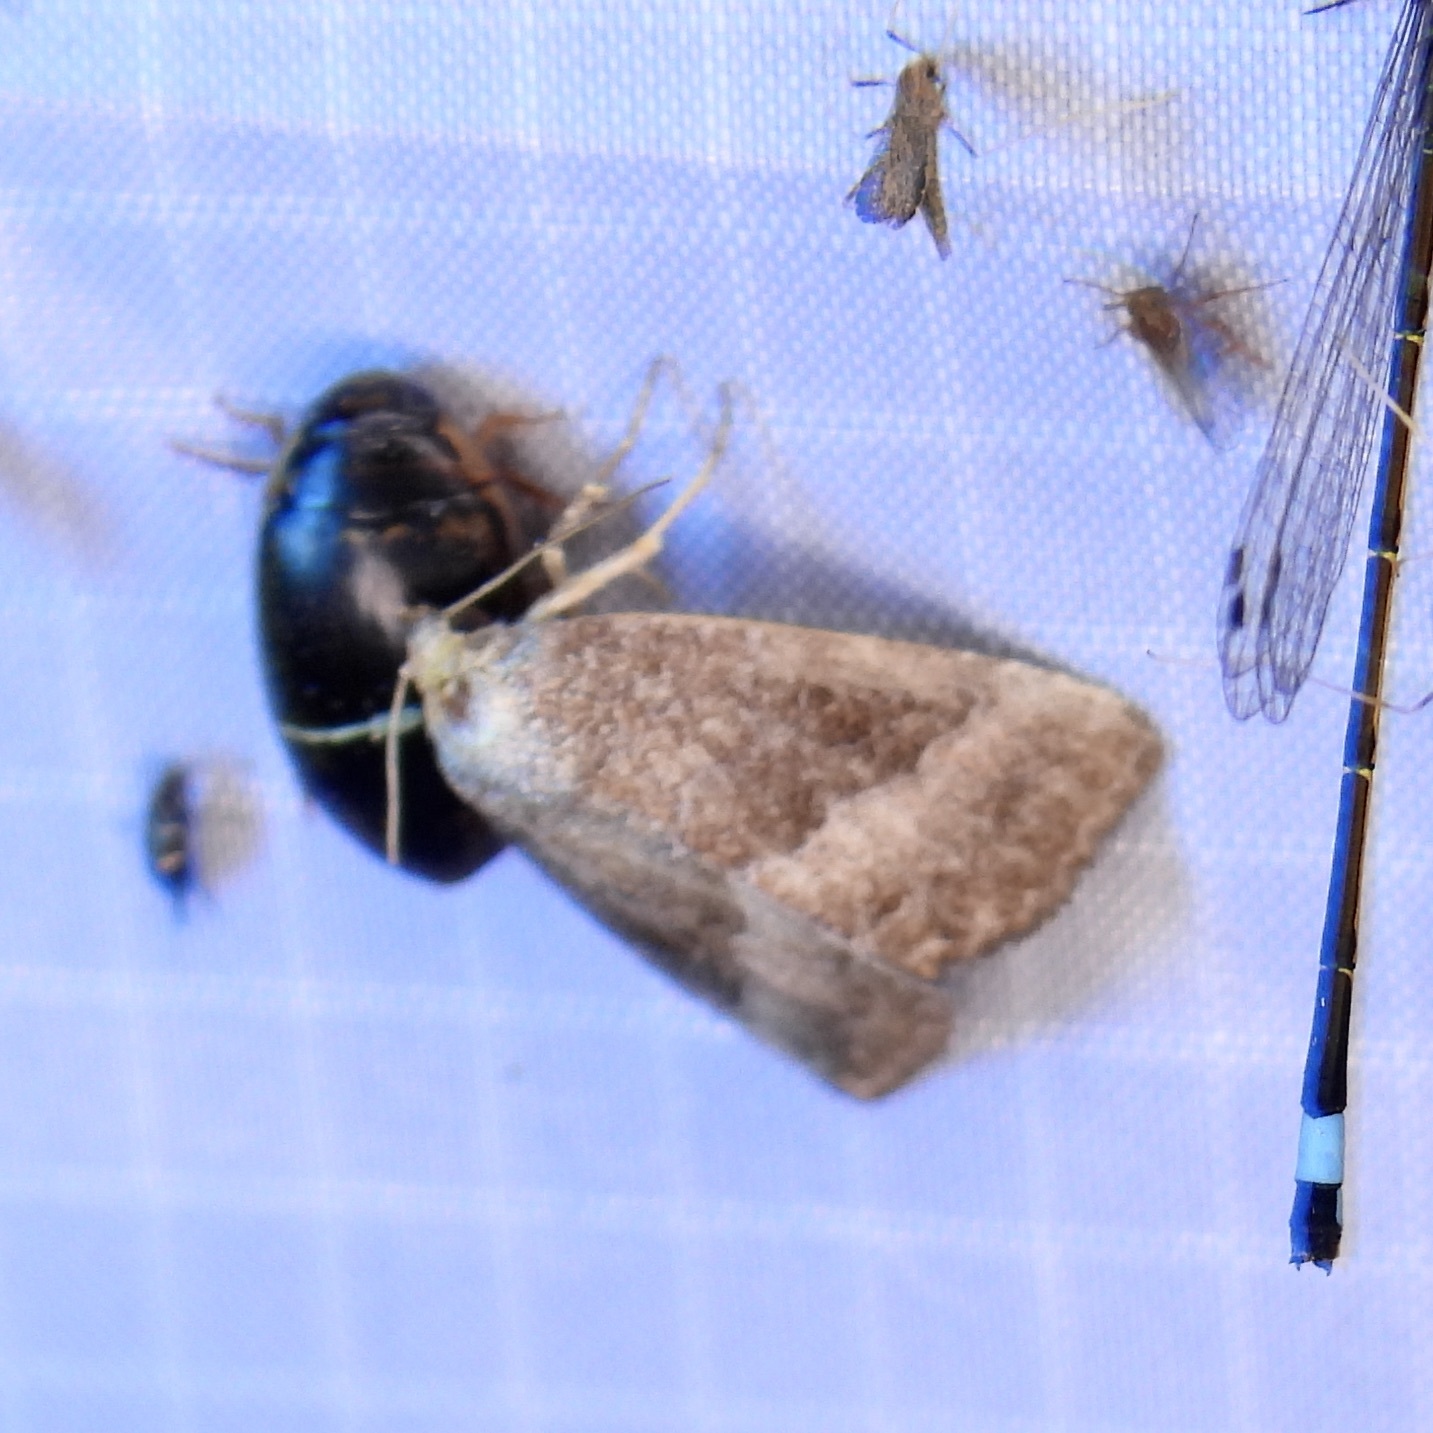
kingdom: Animalia
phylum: Arthropoda
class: Insecta
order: Lepidoptera
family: Noctuidae
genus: Ogdoconta
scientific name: Ogdoconta cinereola
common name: Common pinkband
